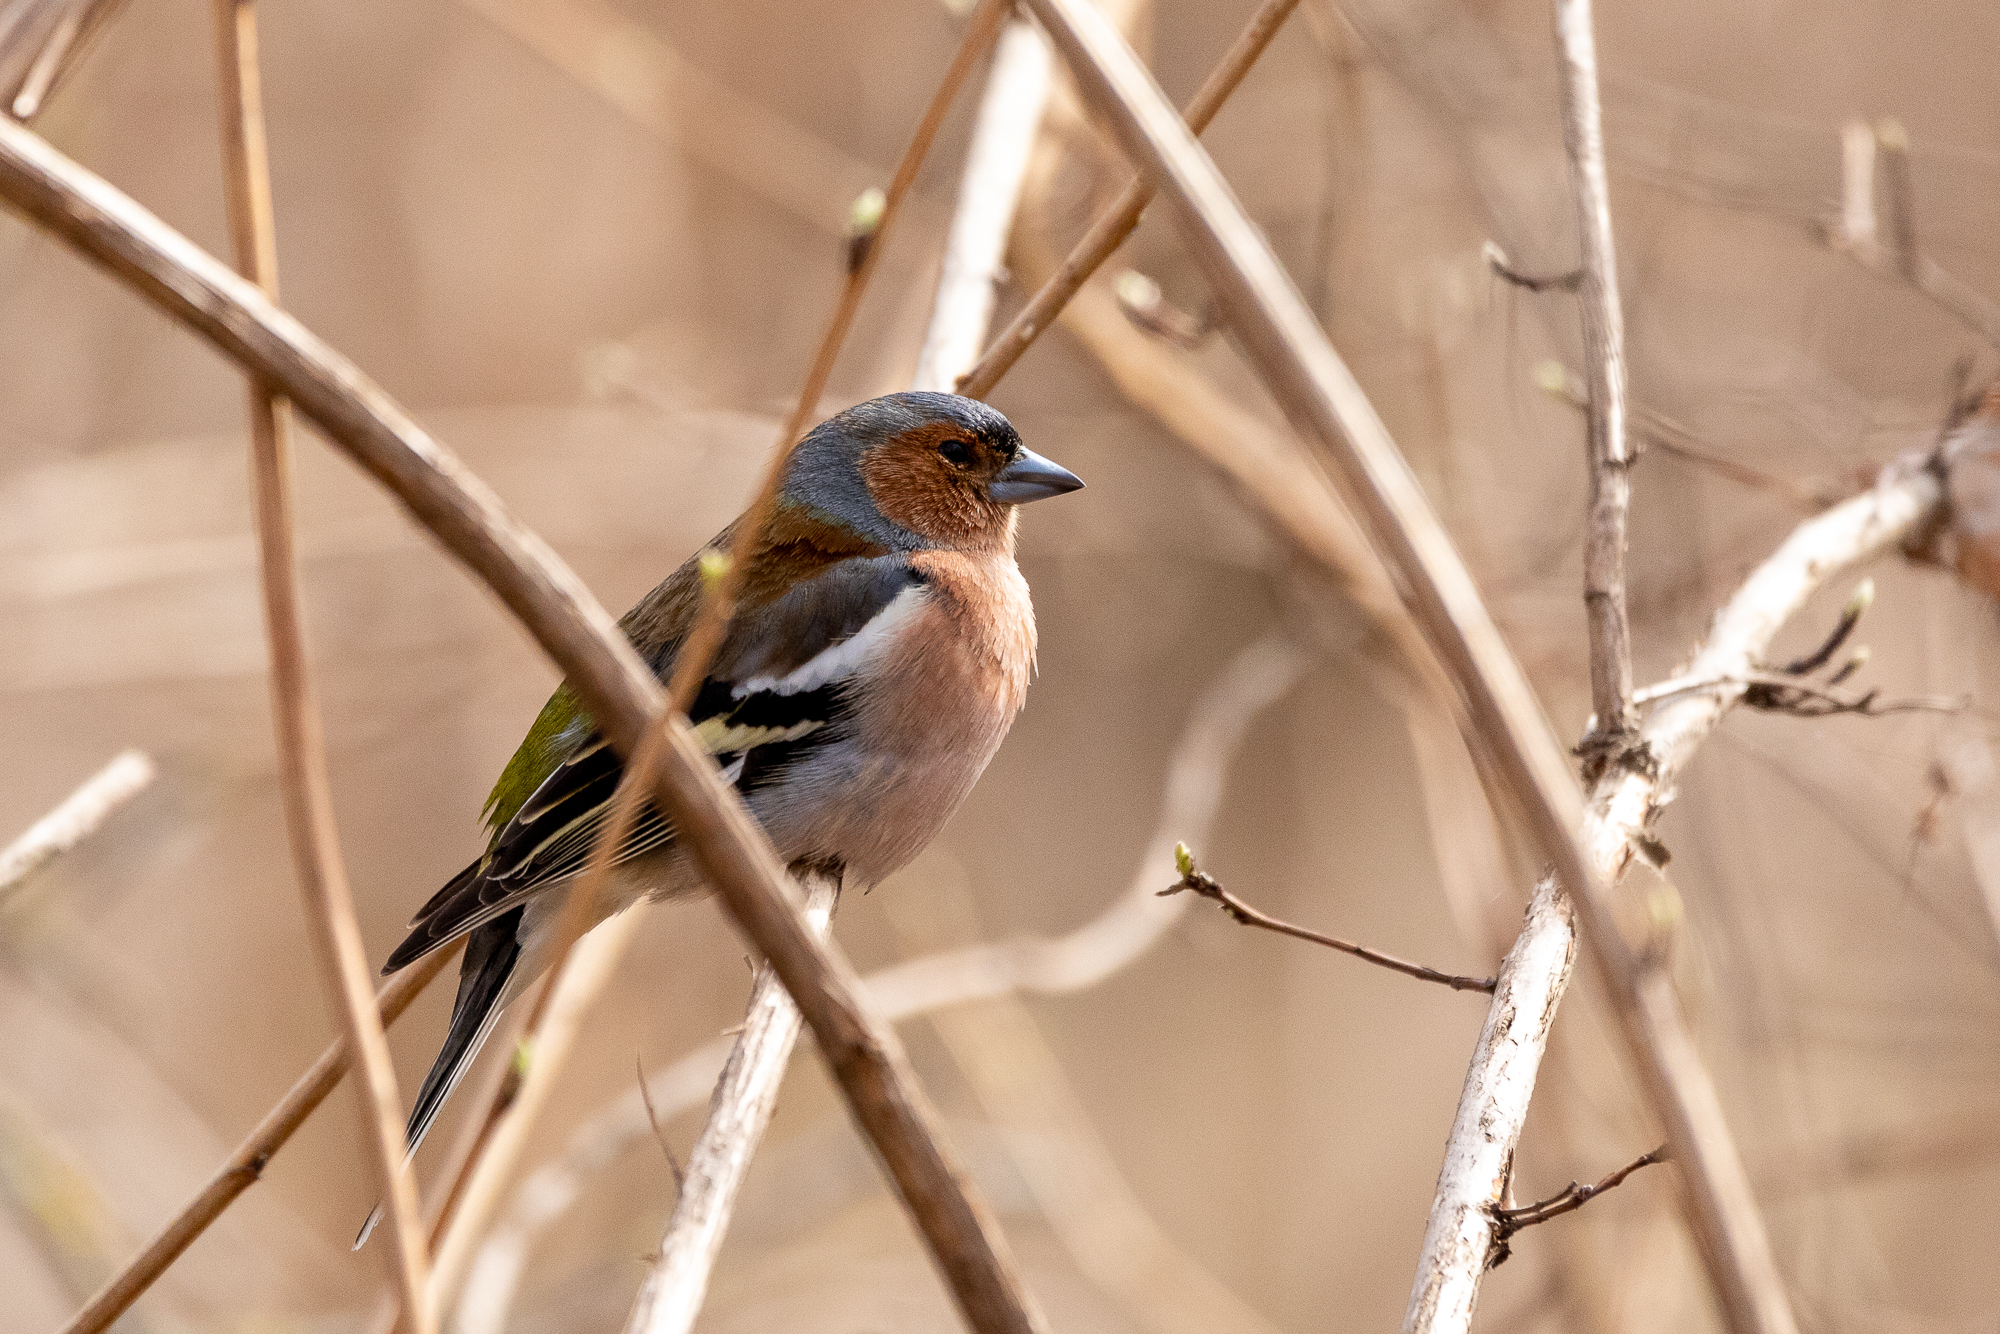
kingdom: Animalia
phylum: Chordata
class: Aves
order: Passeriformes
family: Fringillidae
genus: Fringilla
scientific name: Fringilla coelebs
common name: Common chaffinch
